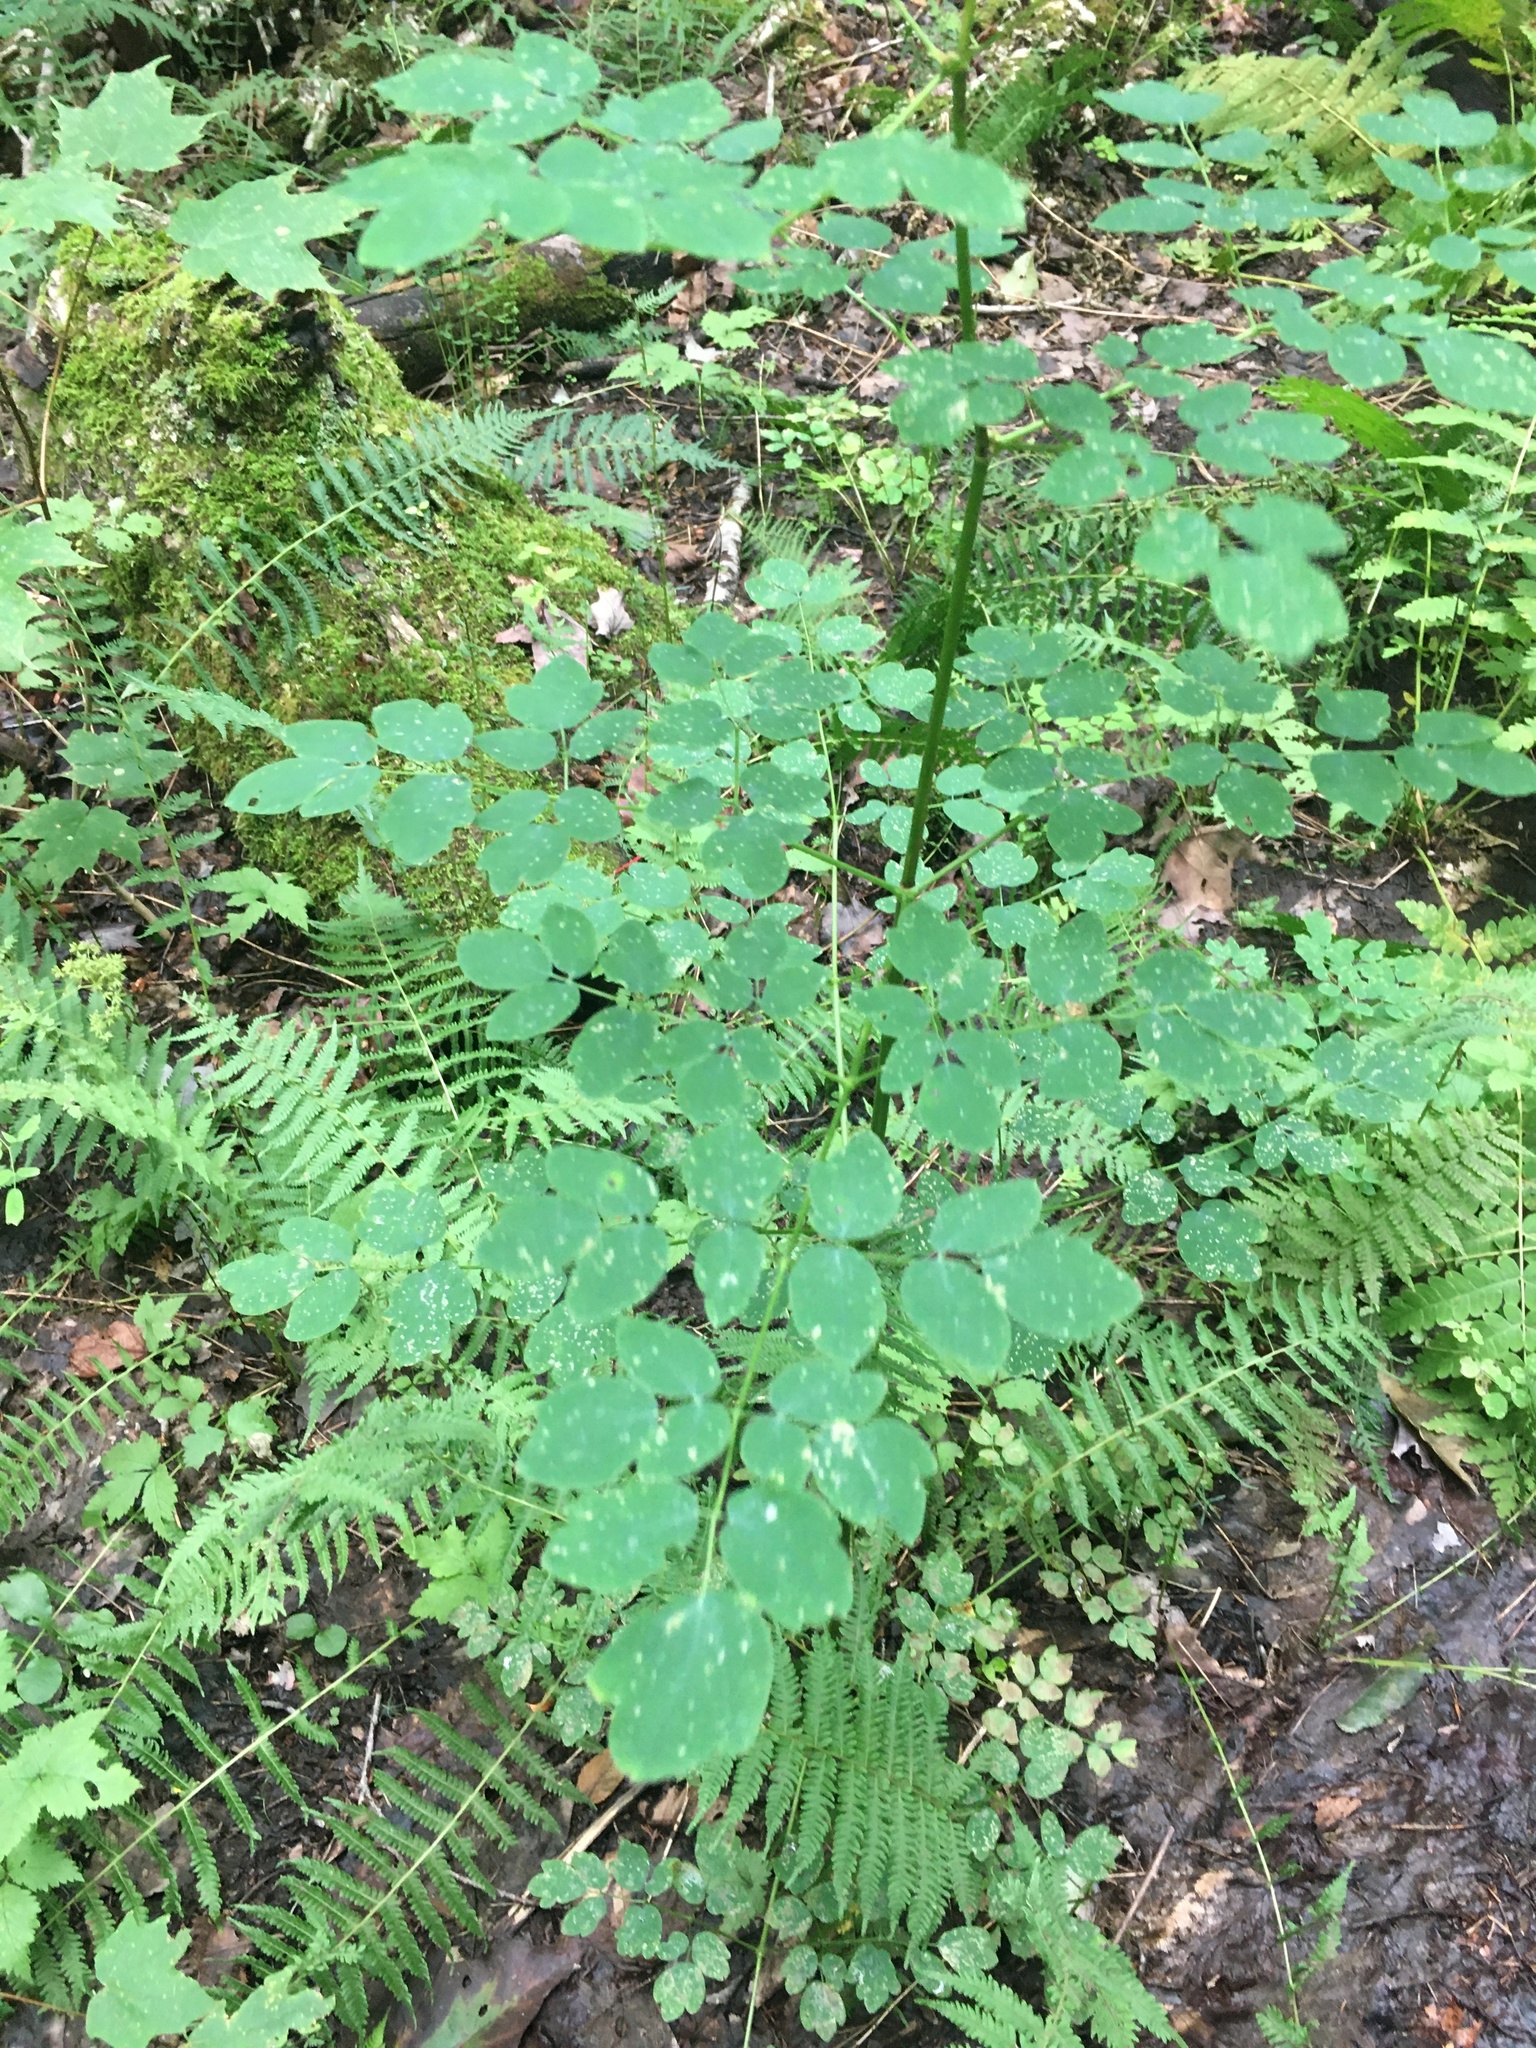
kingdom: Plantae
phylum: Tracheophyta
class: Magnoliopsida
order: Ranunculales
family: Ranunculaceae
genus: Thalictrum
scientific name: Thalictrum pubescens
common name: King-of-the-meadow
